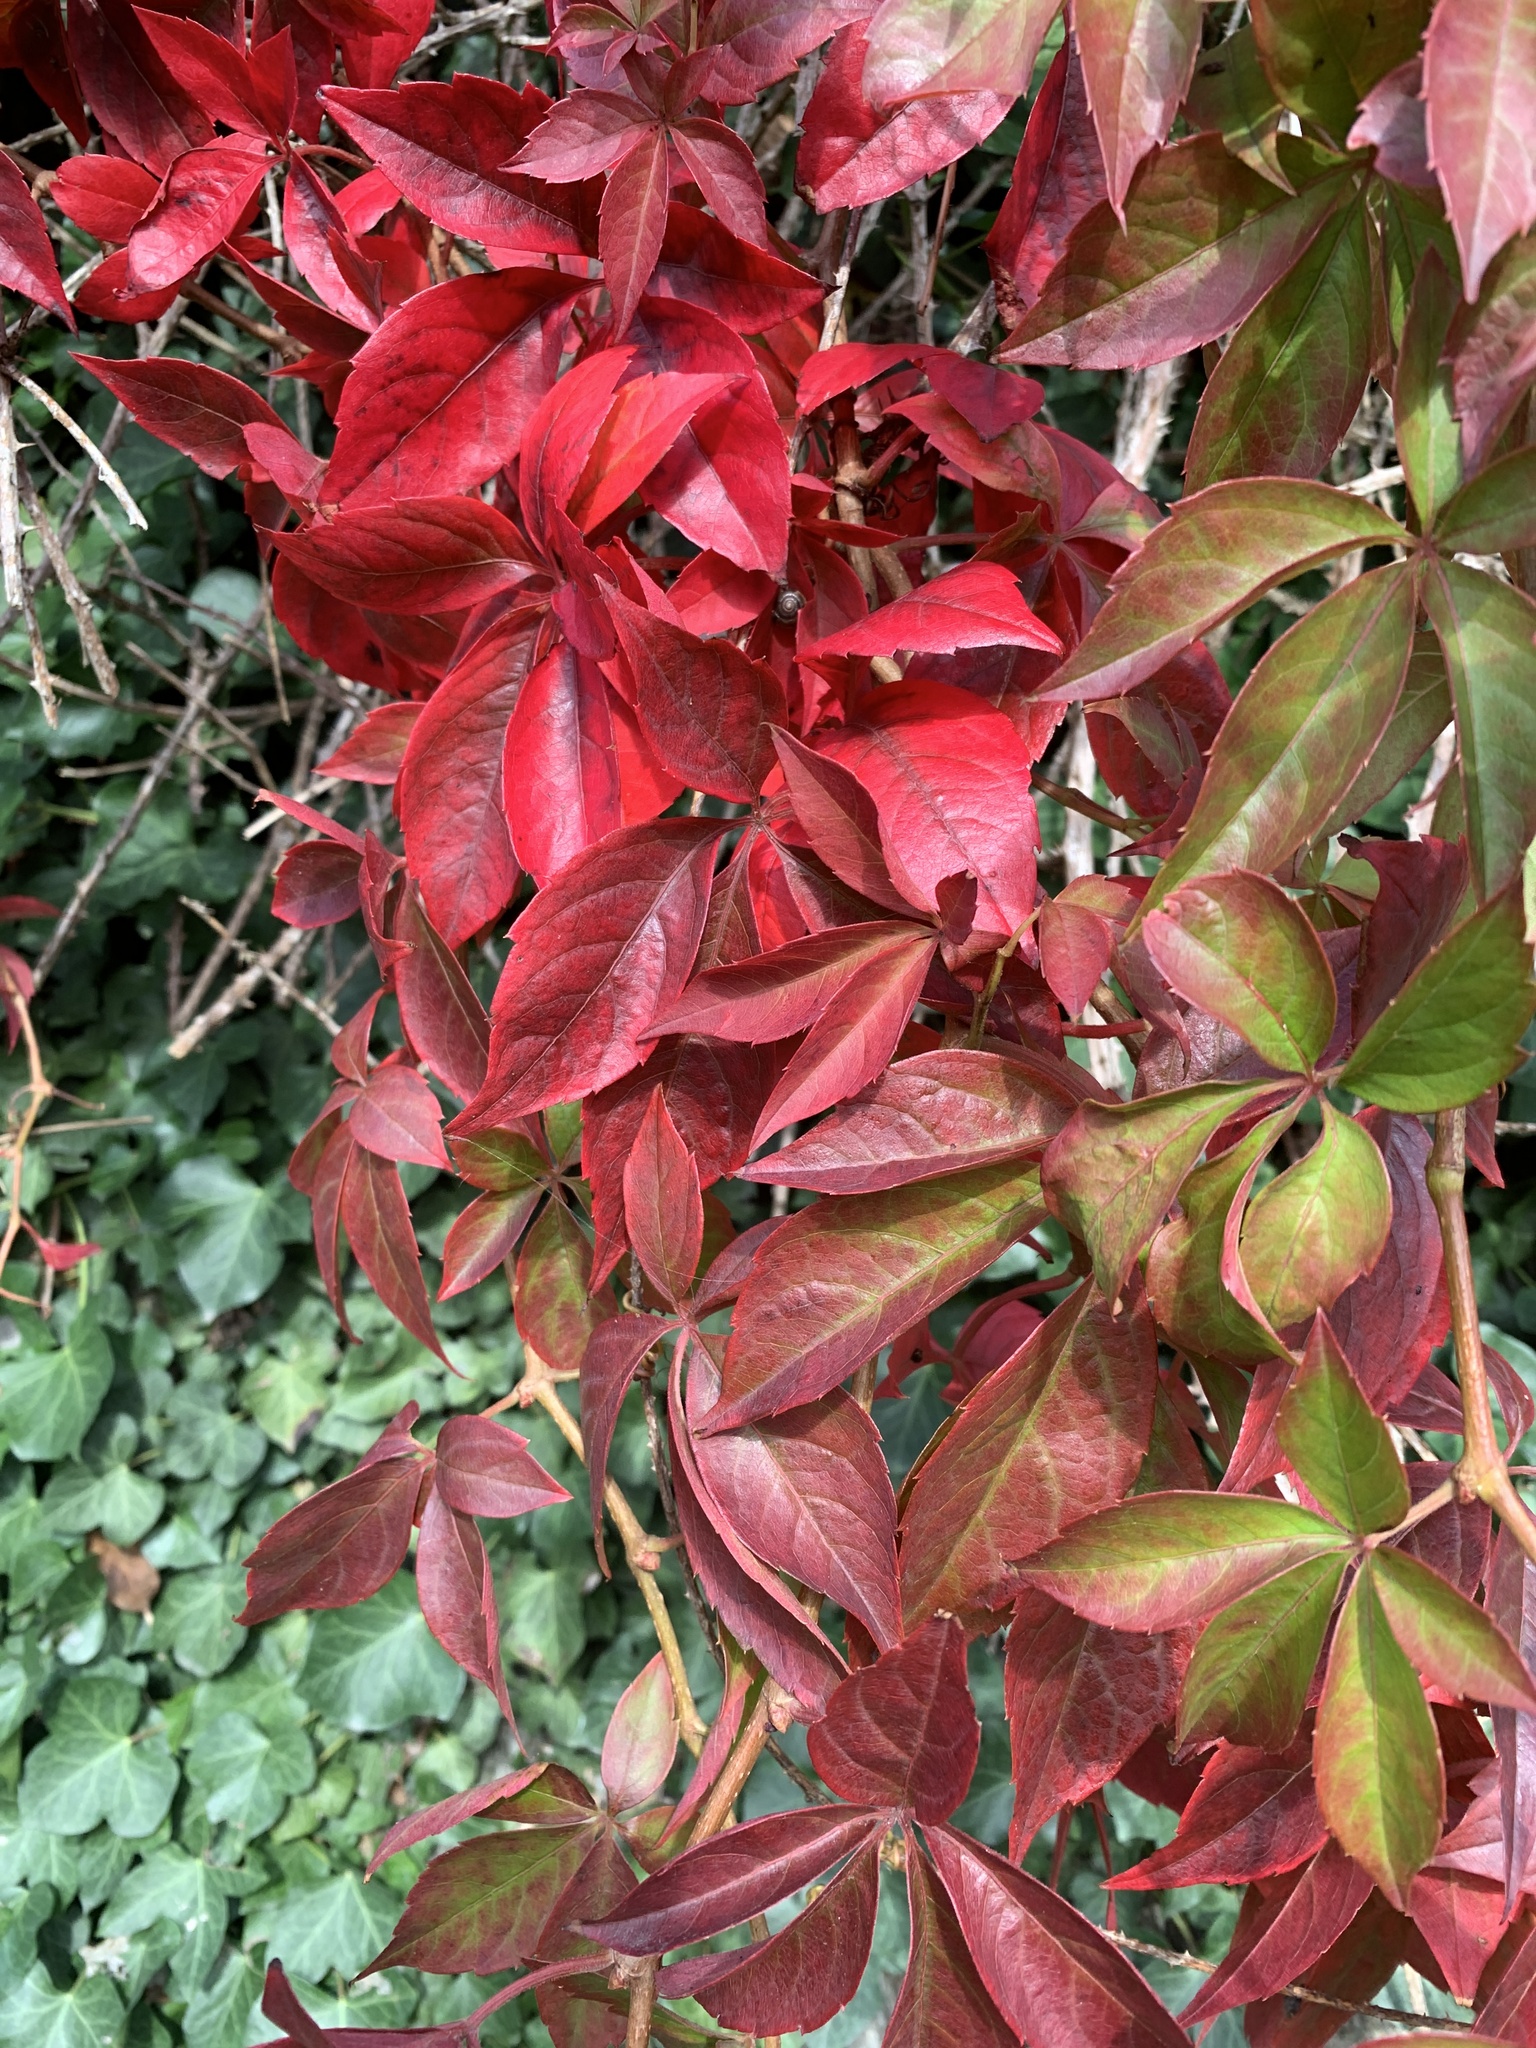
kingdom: Plantae
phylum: Tracheophyta
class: Magnoliopsida
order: Vitales
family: Vitaceae
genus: Parthenocissus
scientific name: Parthenocissus quinquefolia
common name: Virginia-creeper
